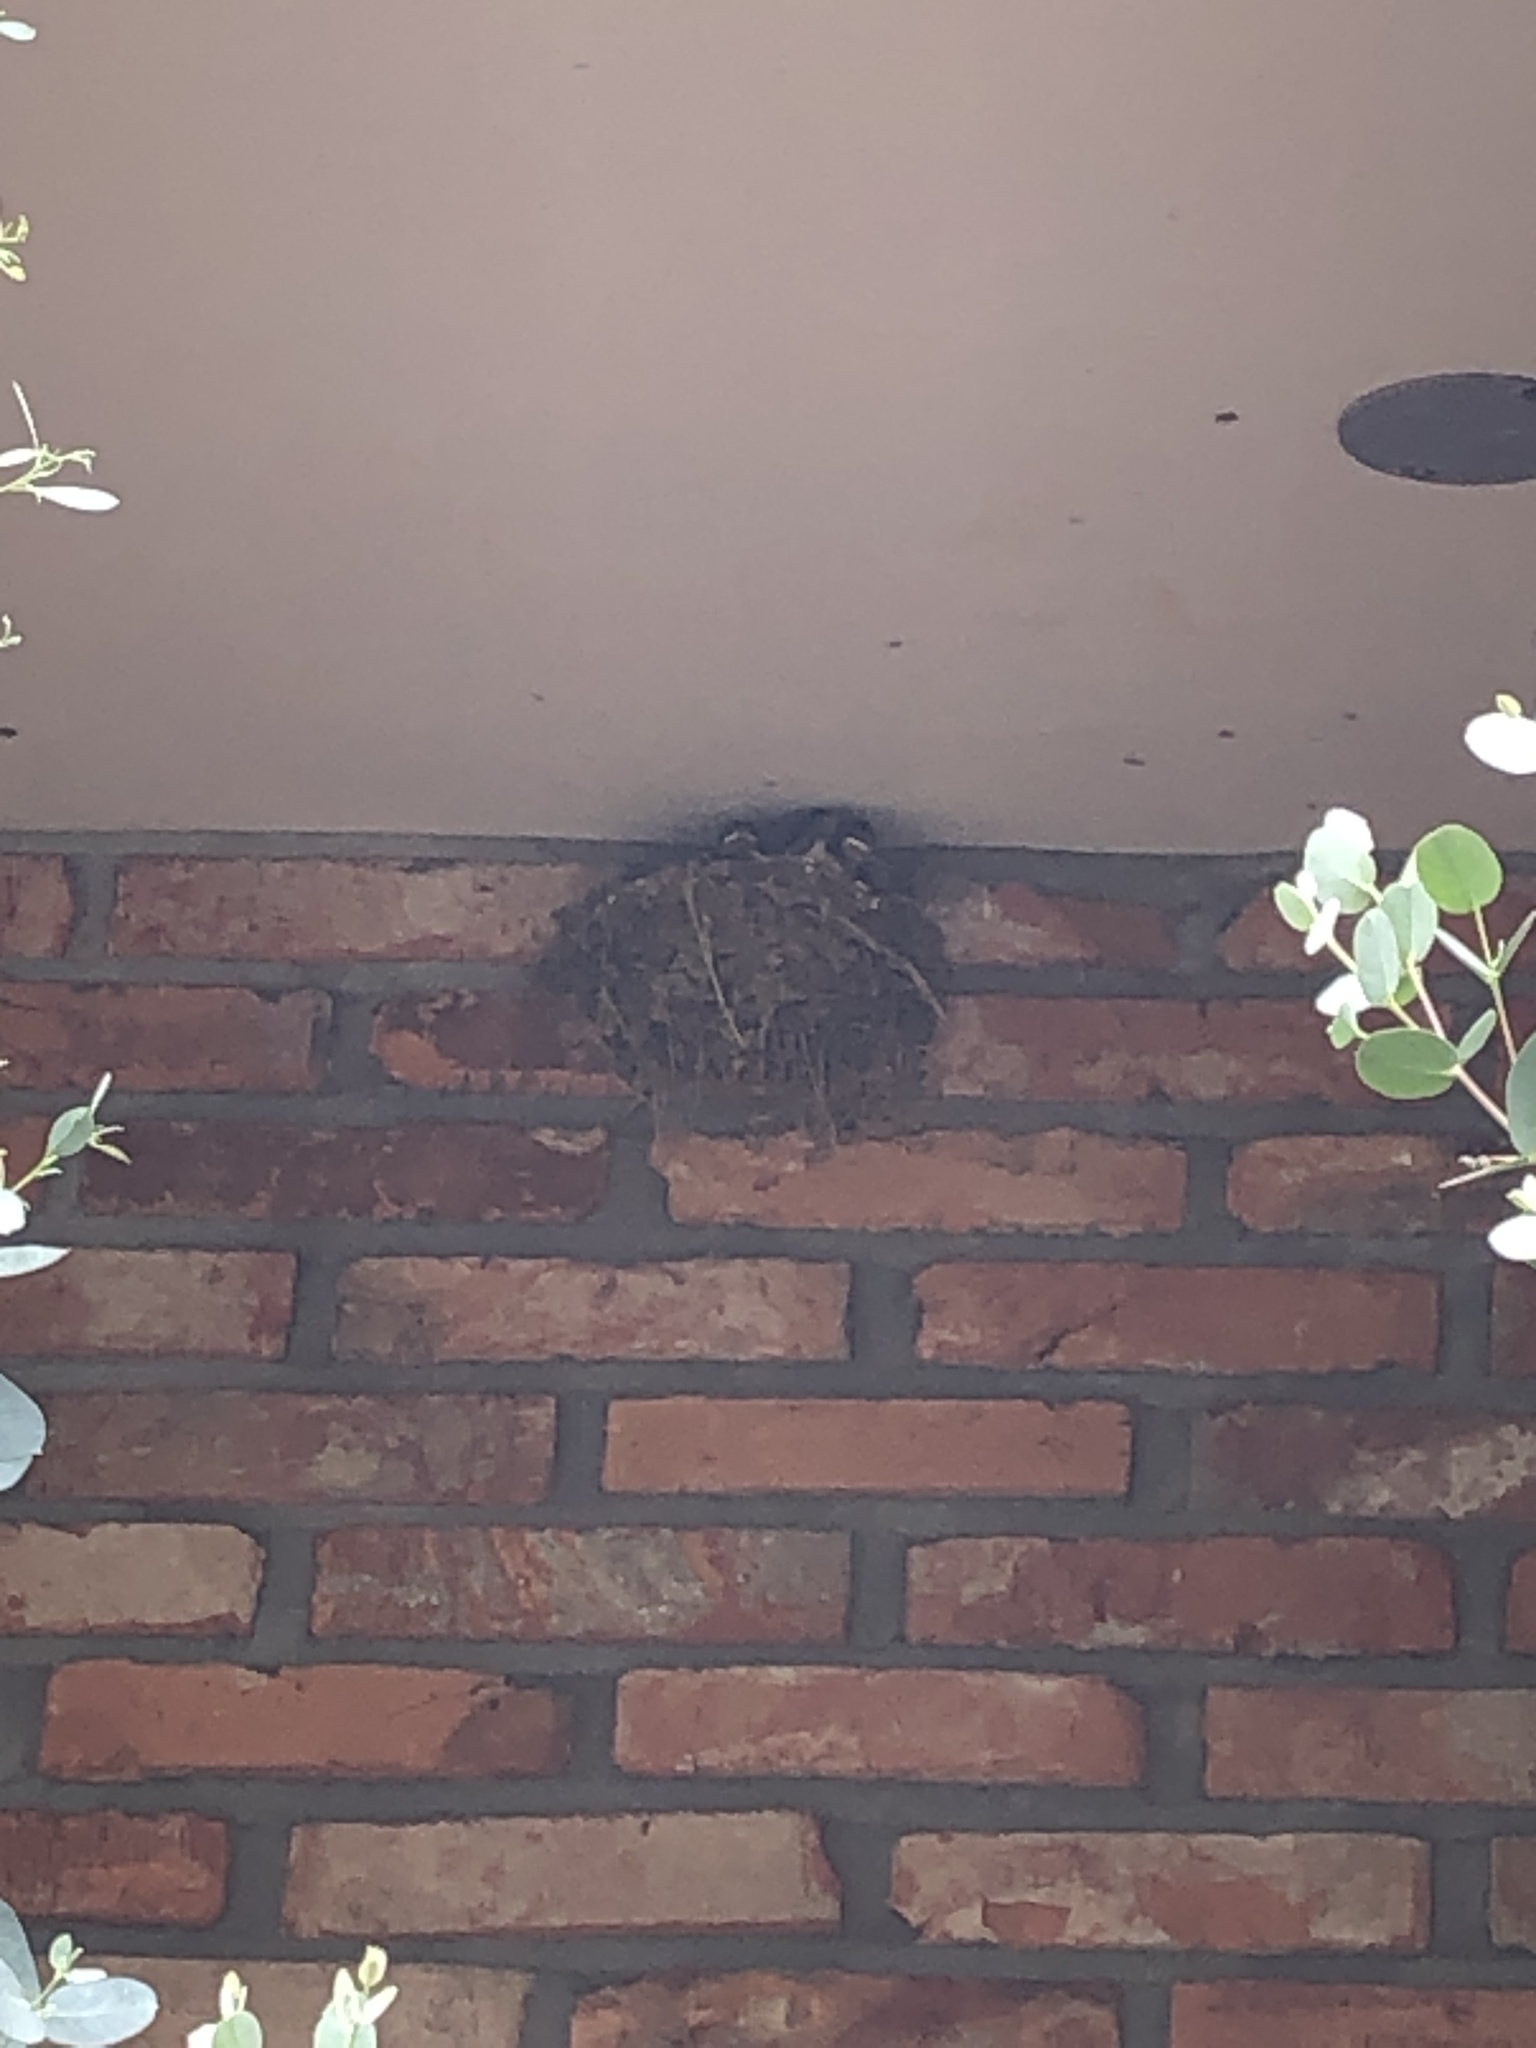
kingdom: Animalia
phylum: Chordata
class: Aves
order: Passeriformes
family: Hirundinidae
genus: Hirundo
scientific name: Hirundo rustica
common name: Barn swallow
